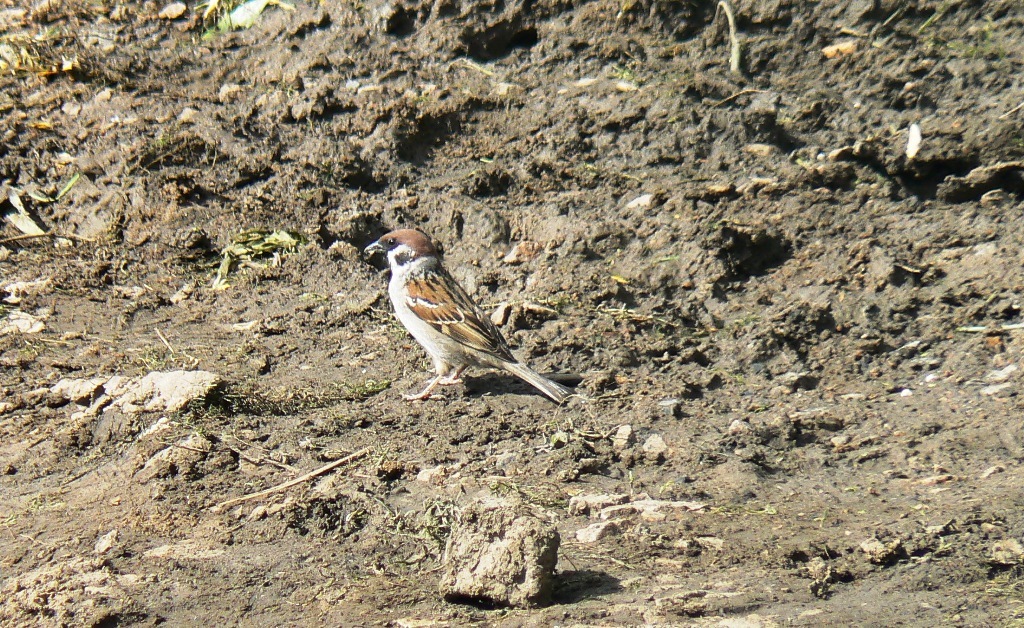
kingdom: Animalia
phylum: Chordata
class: Aves
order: Passeriformes
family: Passeridae
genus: Passer
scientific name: Passer montanus
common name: Eurasian tree sparrow
